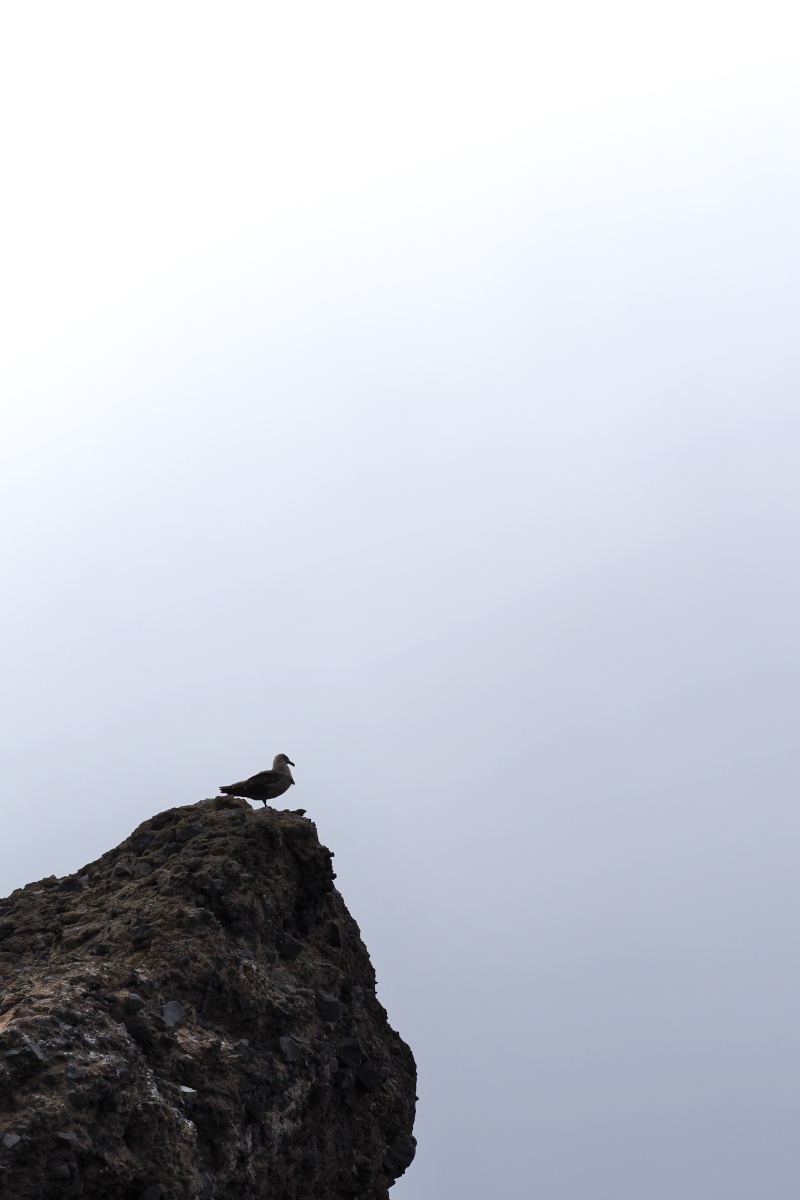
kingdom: Animalia
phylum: Chordata
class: Aves
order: Charadriiformes
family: Stercorariidae
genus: Stercorarius
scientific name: Stercorarius maccormicki
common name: South polar skua
